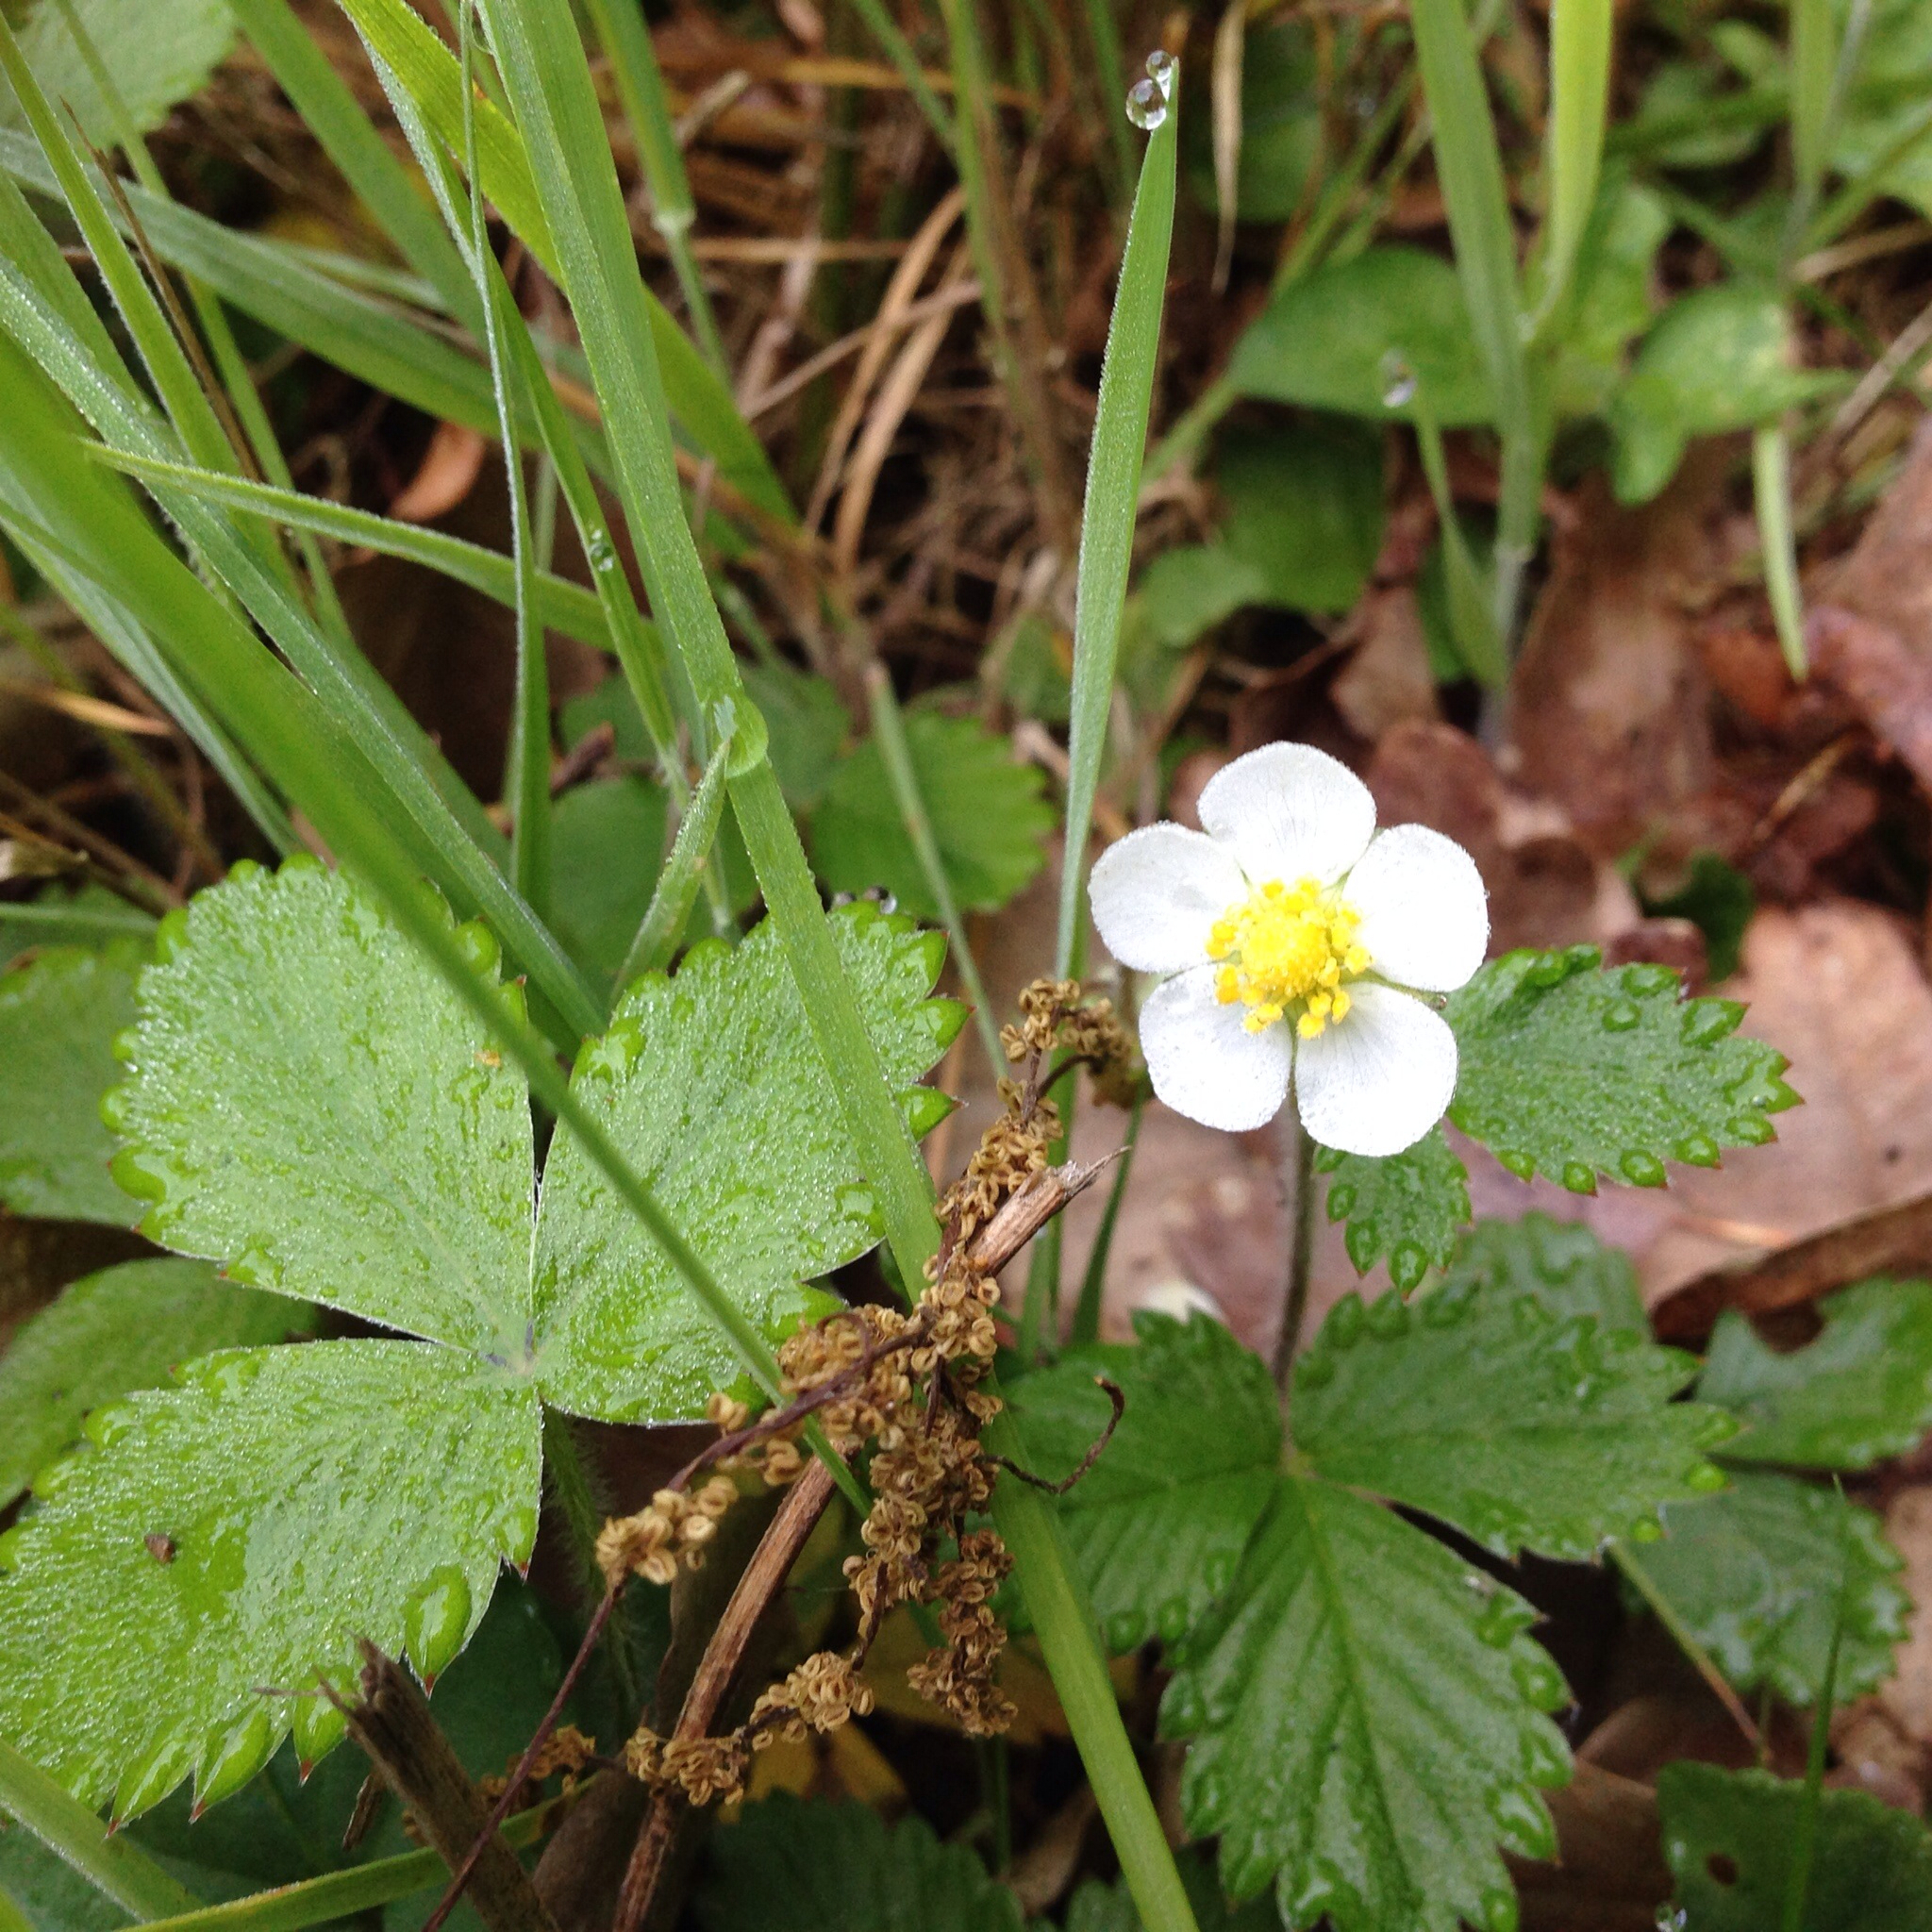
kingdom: Plantae
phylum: Tracheophyta
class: Magnoliopsida
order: Rosales
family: Rosaceae
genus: Fragaria
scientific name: Fragaria vesca
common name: Wild strawberry
